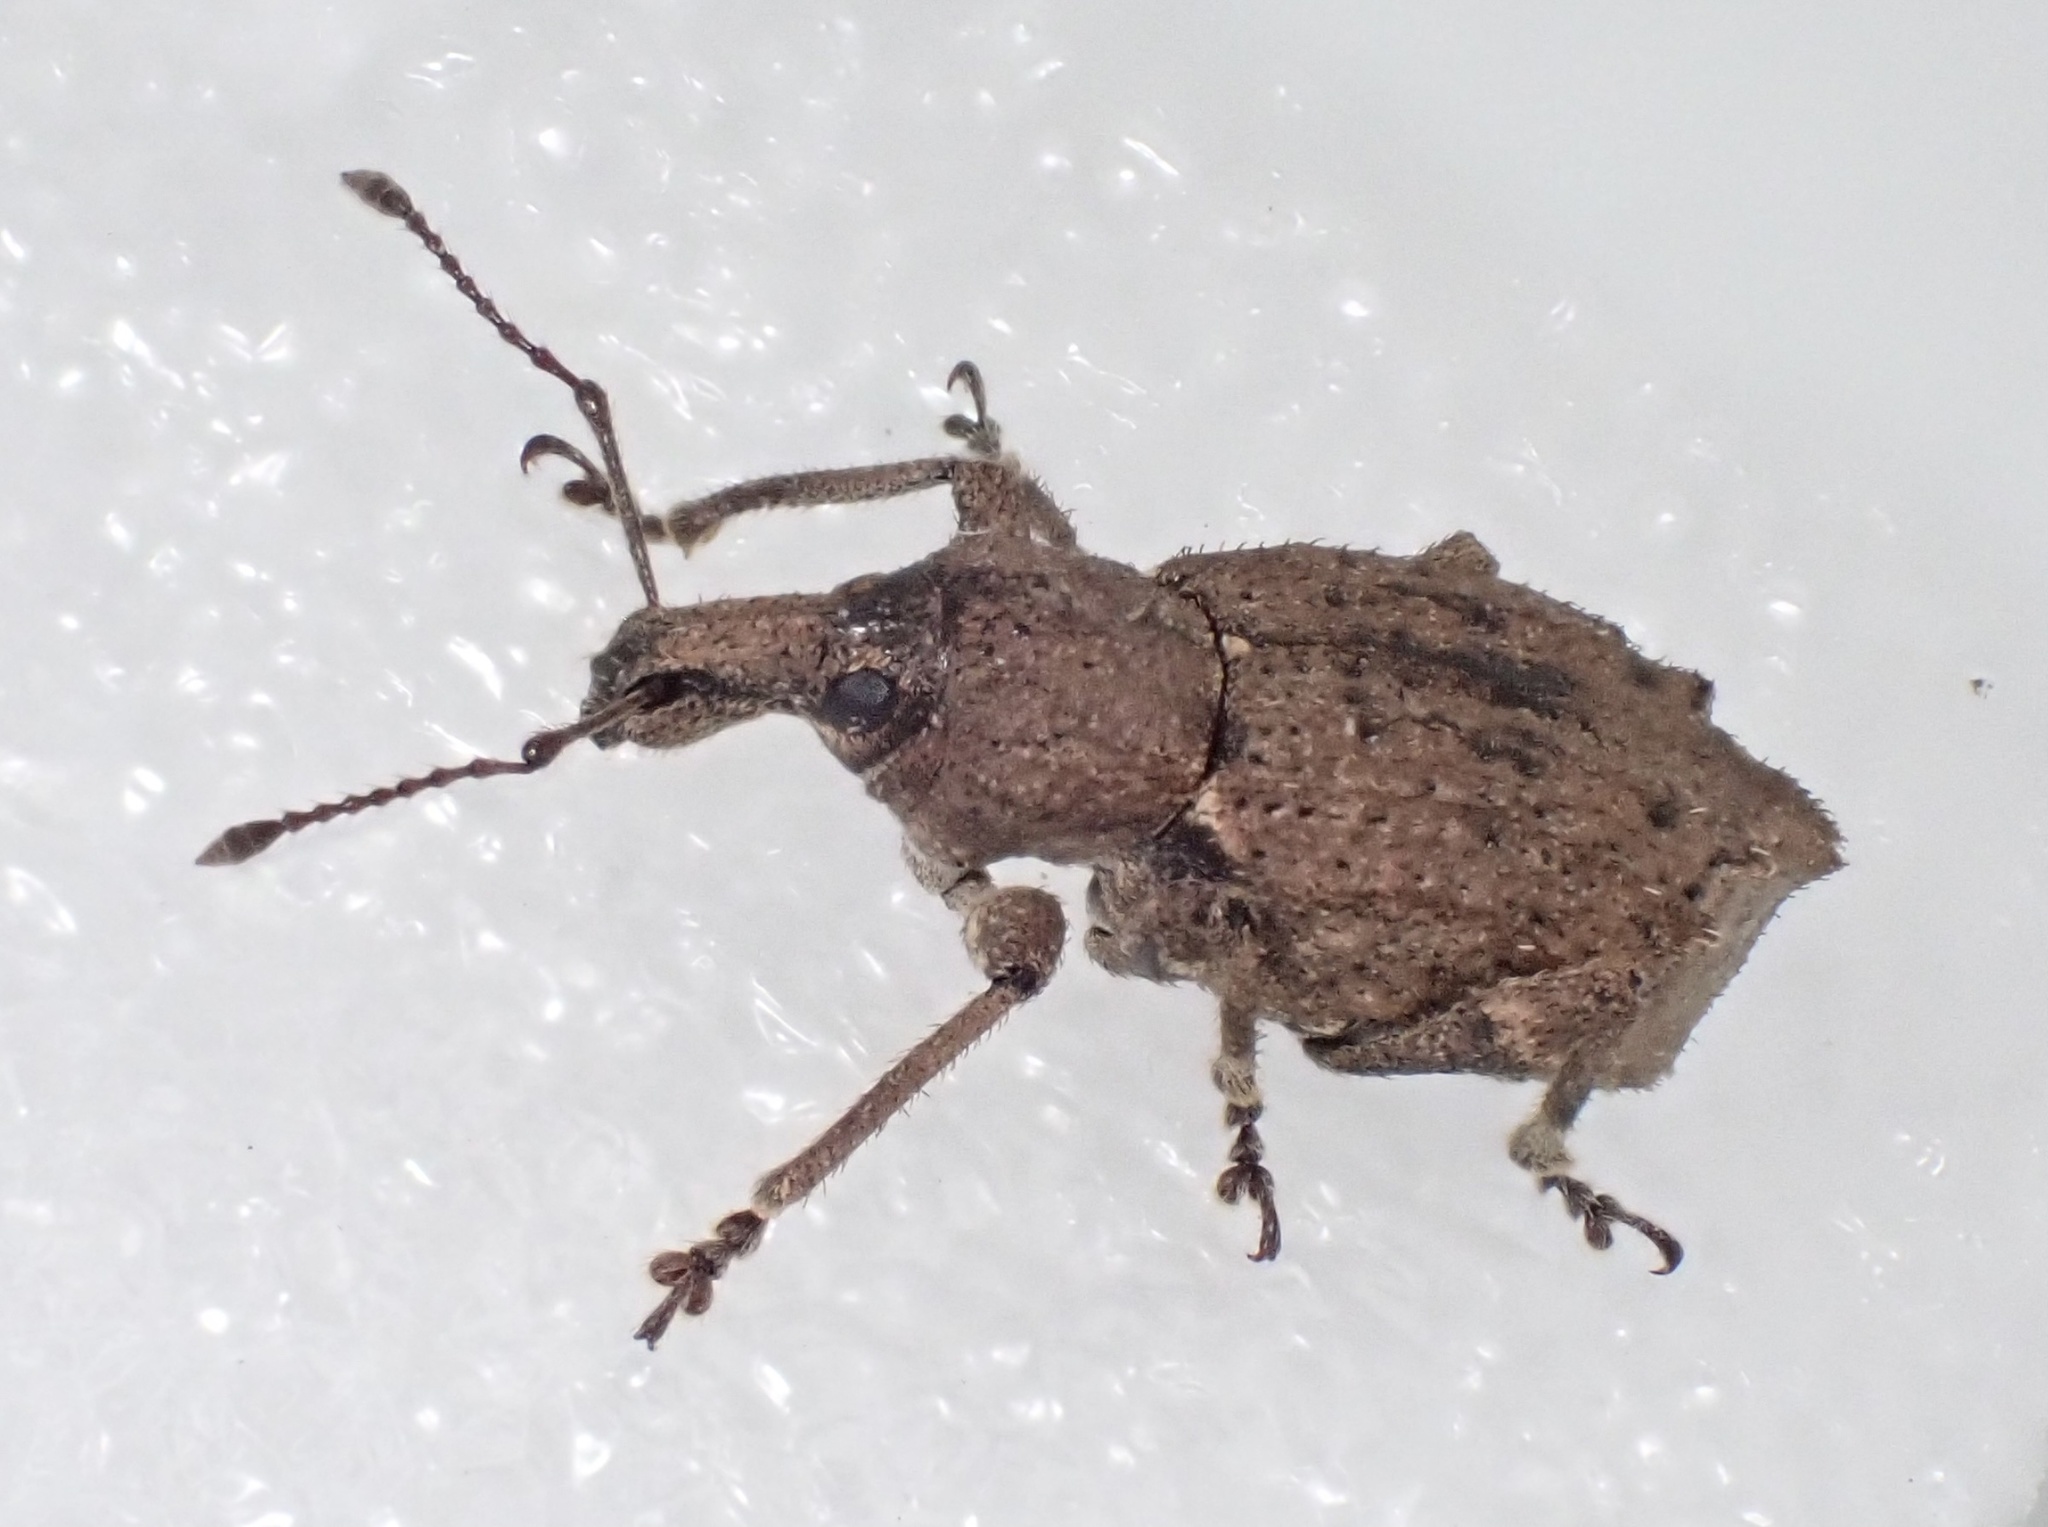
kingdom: Animalia
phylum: Arthropoda
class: Insecta
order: Coleoptera
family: Curculionidae
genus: Chalepistes
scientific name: Chalepistes rhesus
